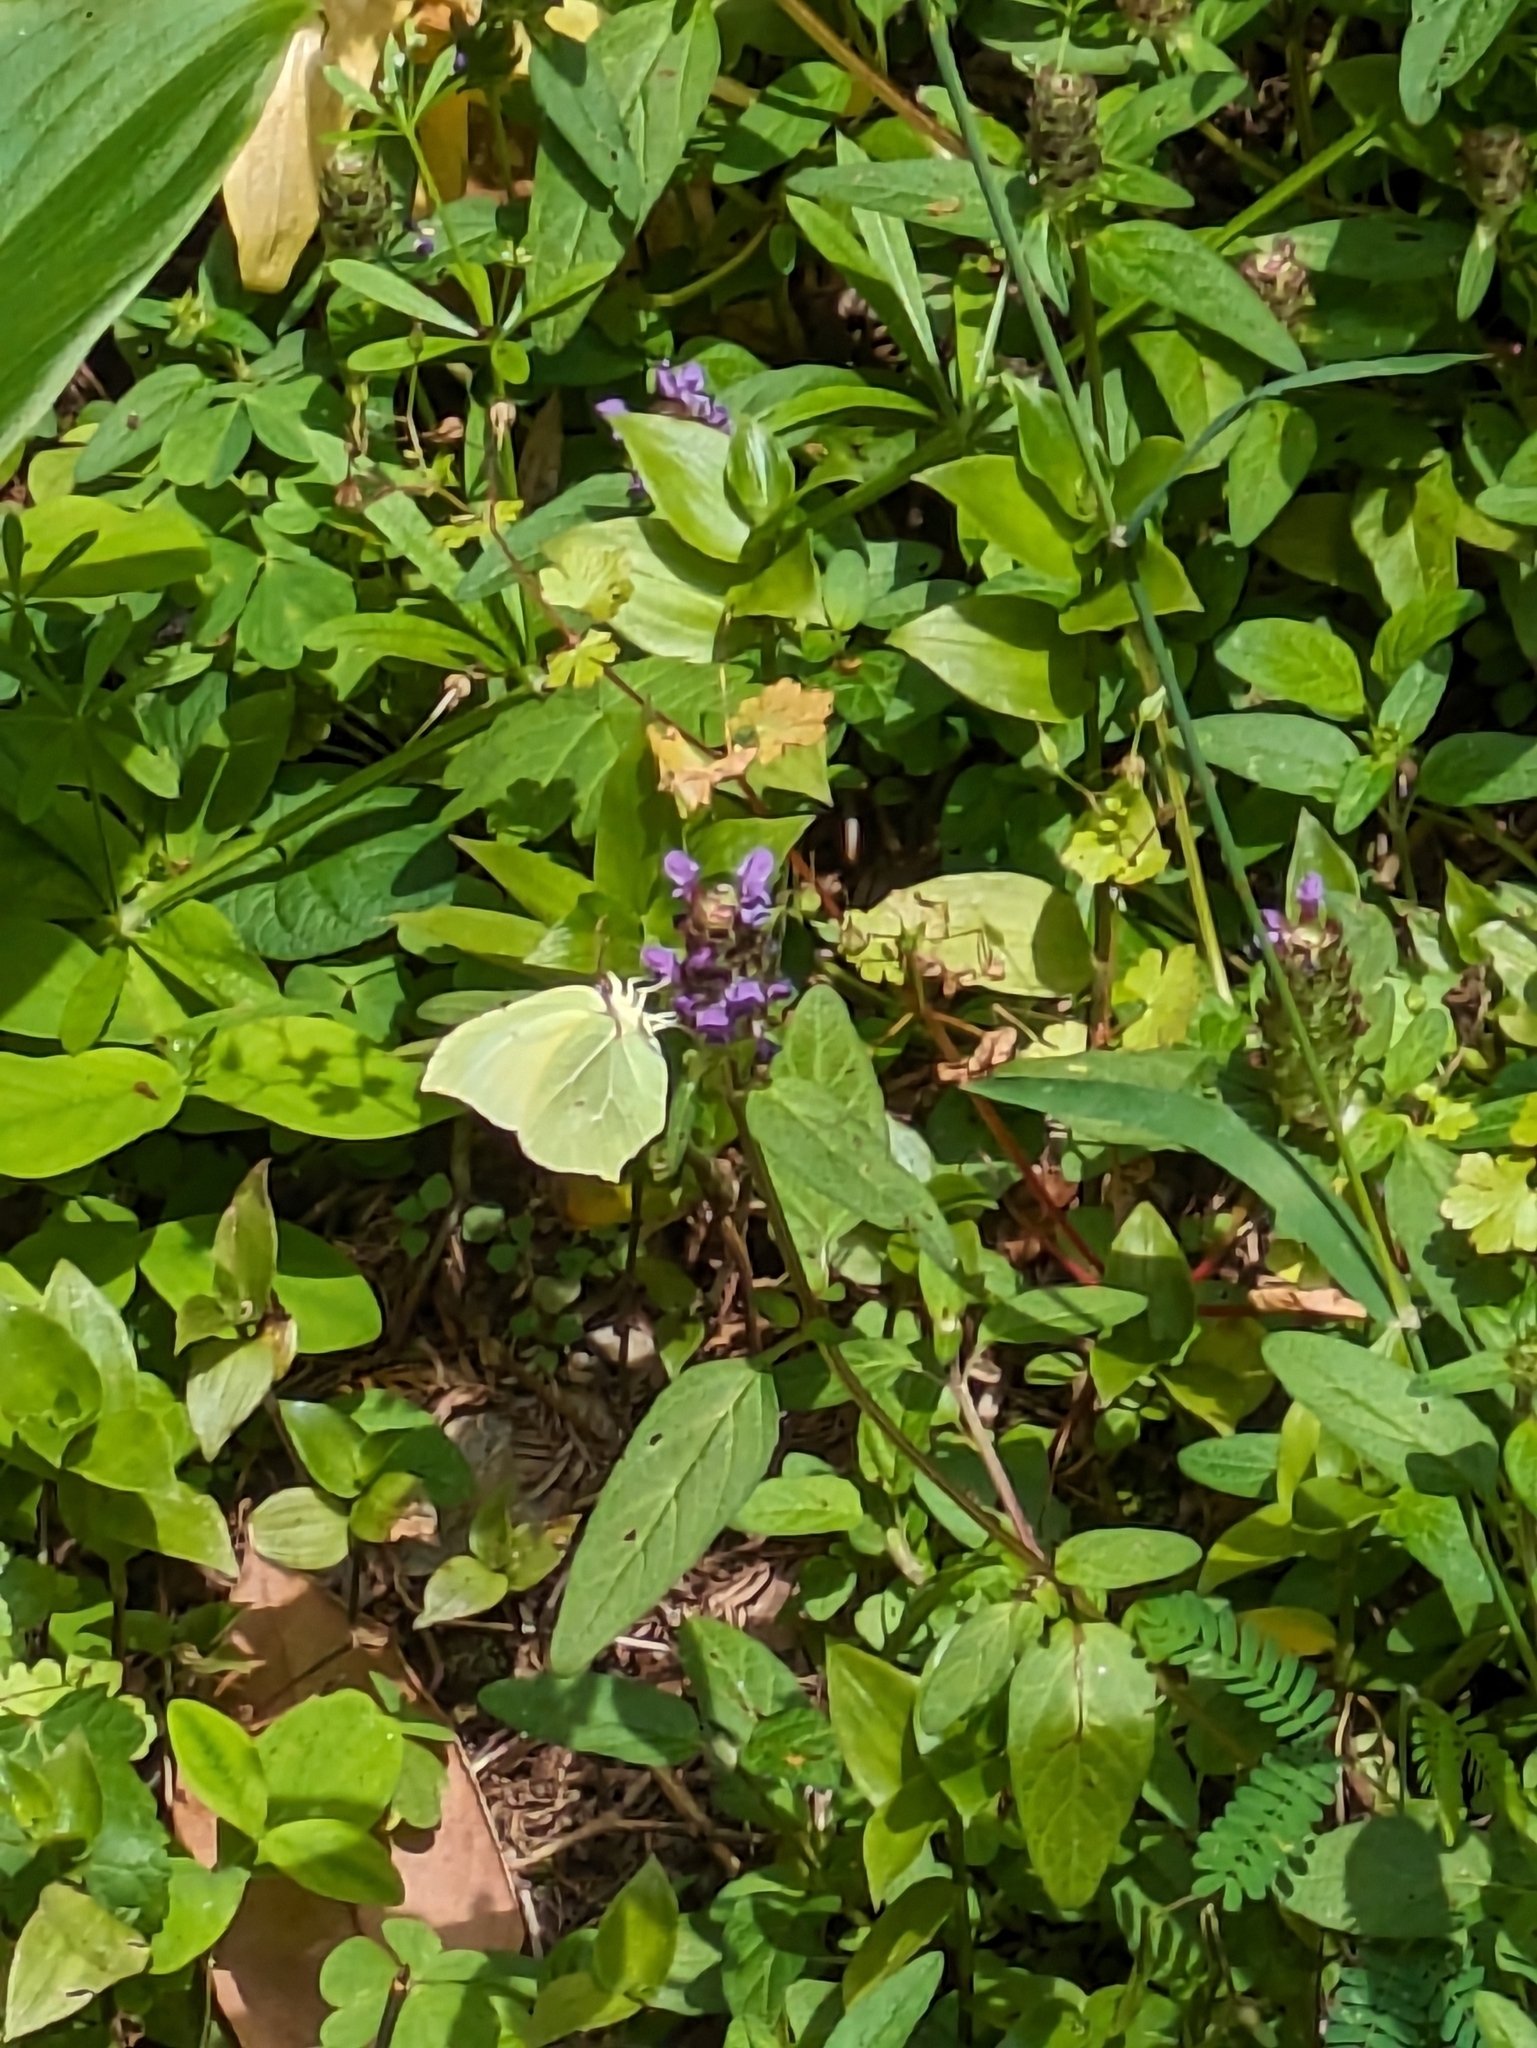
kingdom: Animalia
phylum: Arthropoda
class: Insecta
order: Lepidoptera
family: Pieridae
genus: Gonepteryx
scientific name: Gonepteryx rhamni
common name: Brimstone
